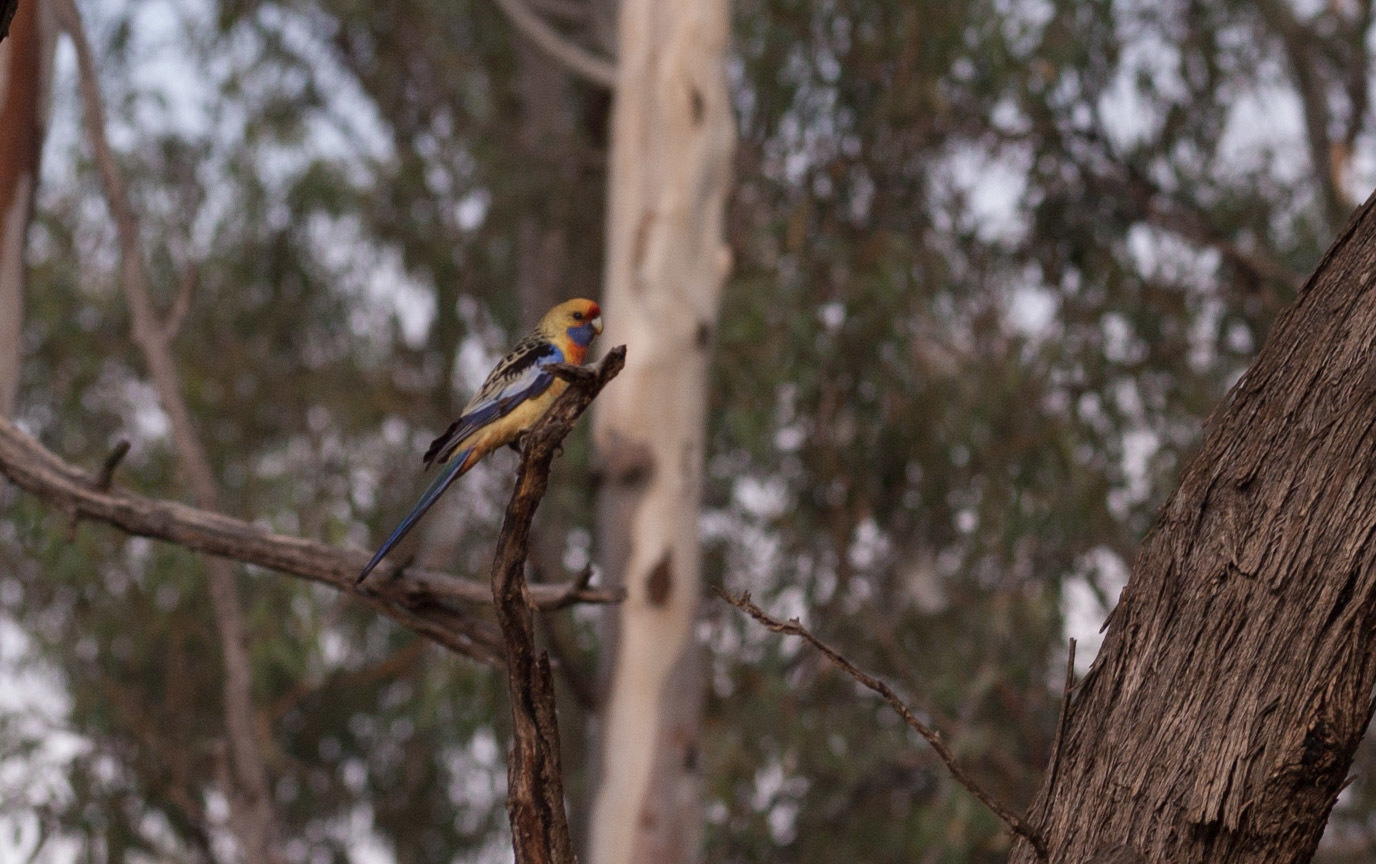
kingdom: Animalia
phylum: Chordata
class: Aves
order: Psittaciformes
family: Psittacidae
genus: Platycercus
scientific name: Platycercus elegans
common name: Crimson rosella
